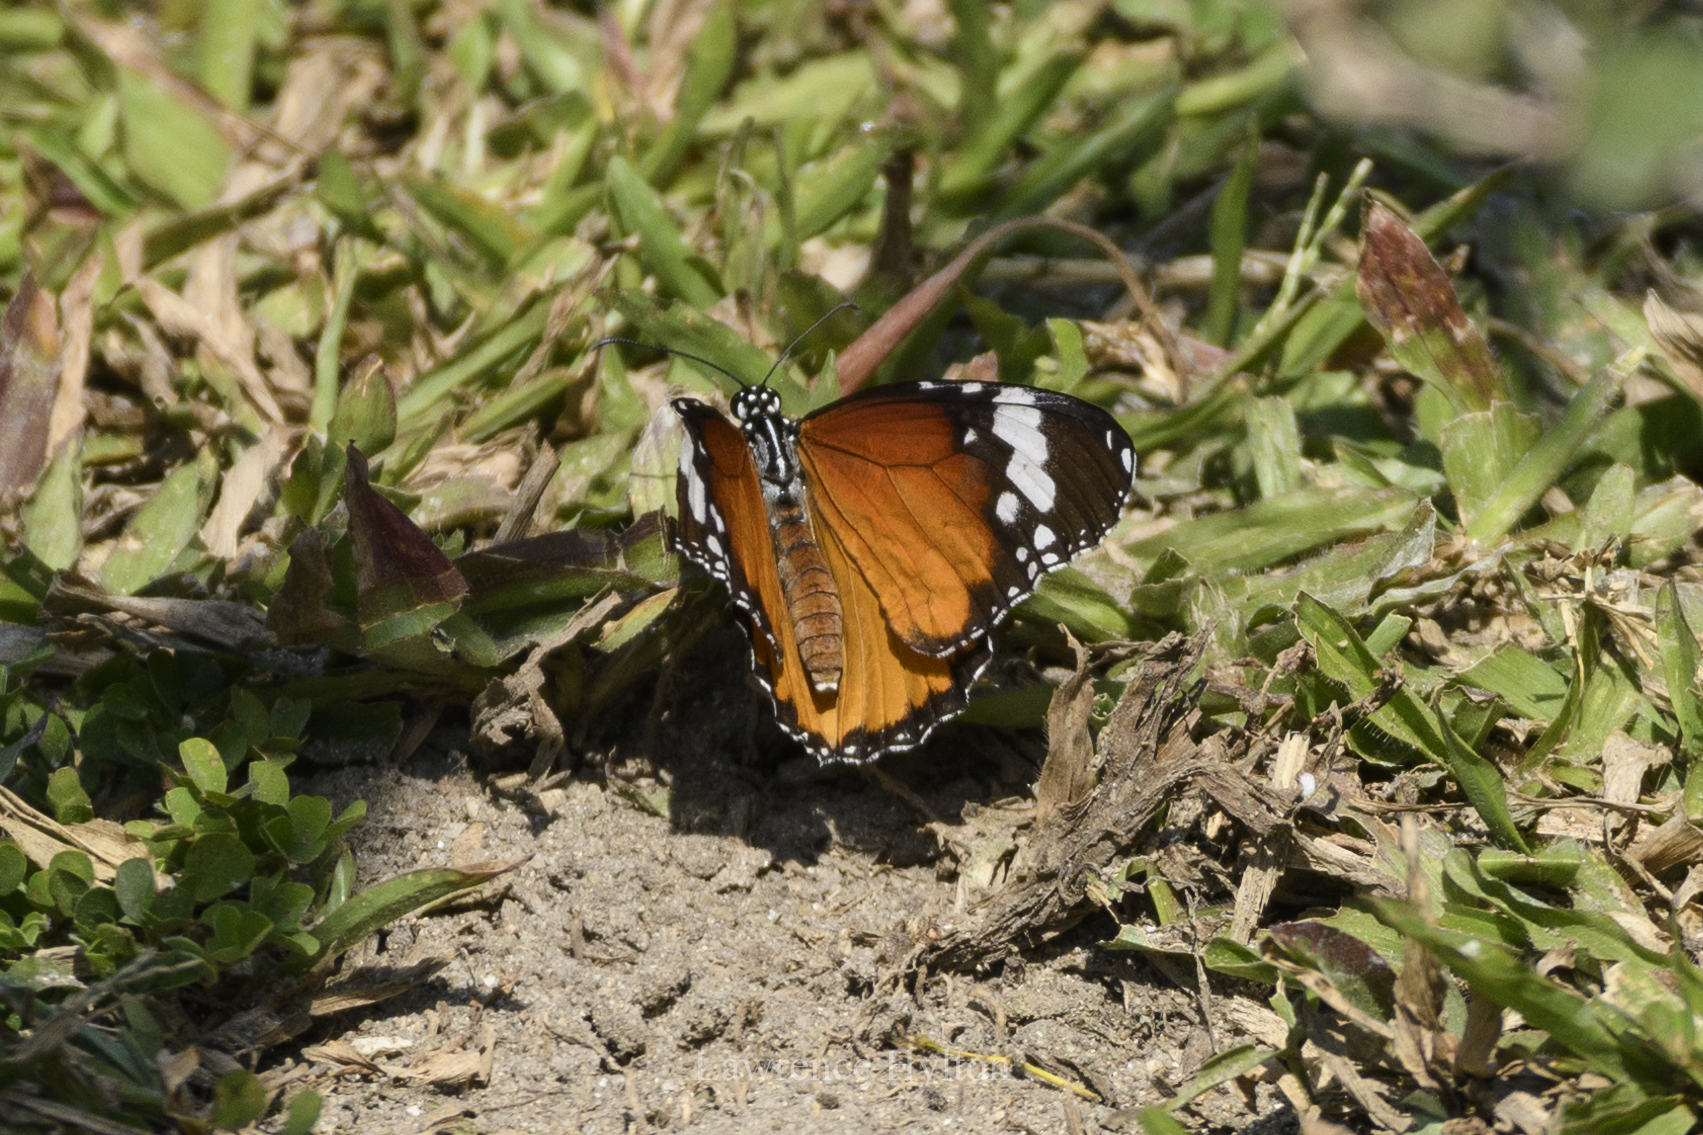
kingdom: Animalia
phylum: Arthropoda
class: Insecta
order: Lepidoptera
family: Nymphalidae
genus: Danaus
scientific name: Danaus chrysippus
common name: Plain tiger
